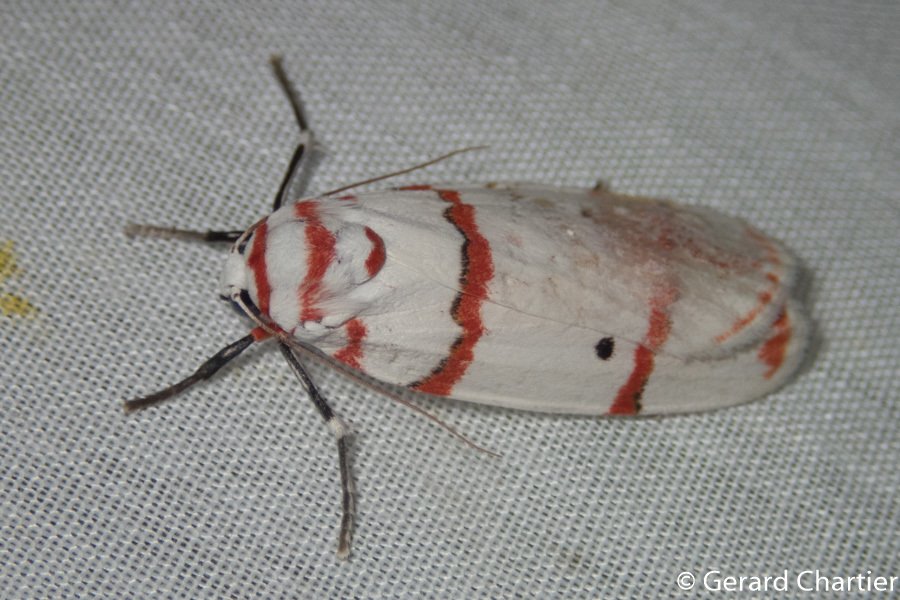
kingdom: Animalia
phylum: Arthropoda
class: Insecta
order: Lepidoptera
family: Erebidae
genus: Cyana
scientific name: Cyana perornata
